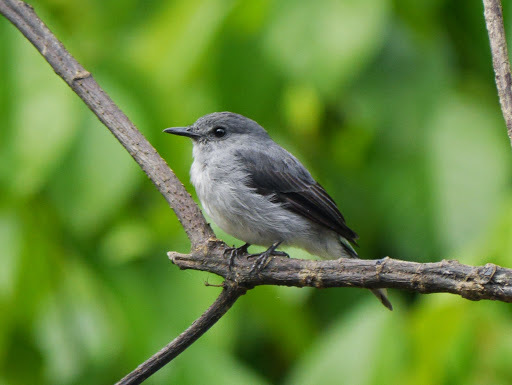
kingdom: Animalia
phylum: Chordata
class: Aves
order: Passeriformes
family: Muscicapidae
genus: Muscicapa
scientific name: Muscicapa cassini
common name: Cassin's flycatcher
